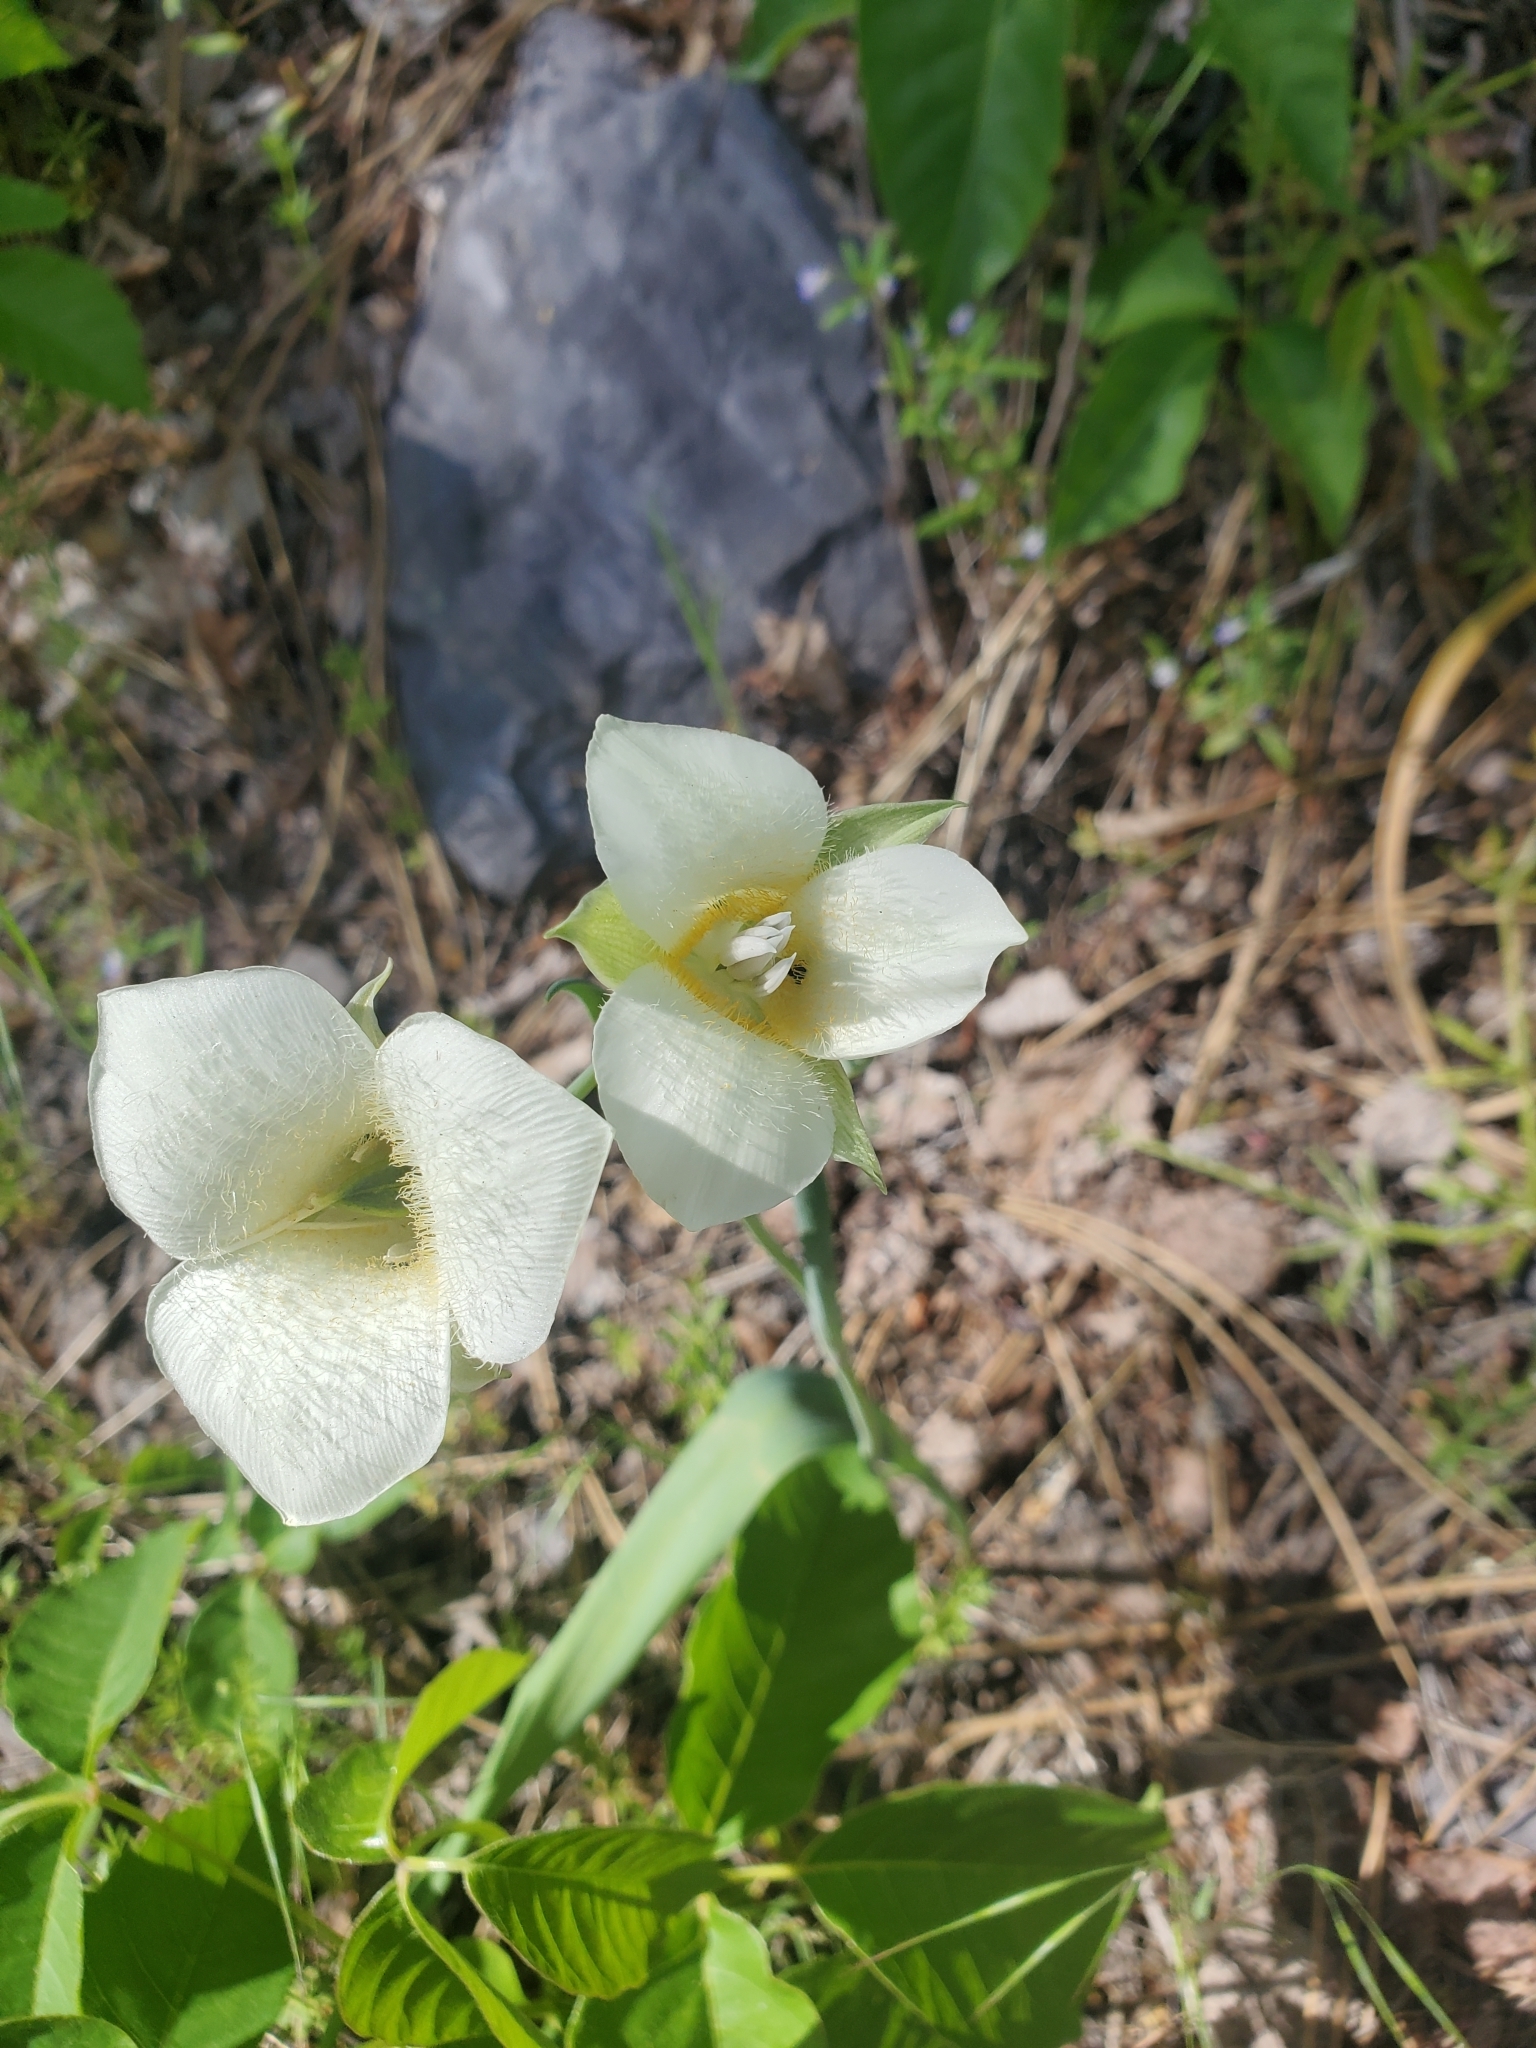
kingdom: Plantae
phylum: Tracheophyta
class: Liliopsida
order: Liliales
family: Liliaceae
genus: Calochortus
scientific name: Calochortus apiculatus
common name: Baker's mariposa lily
